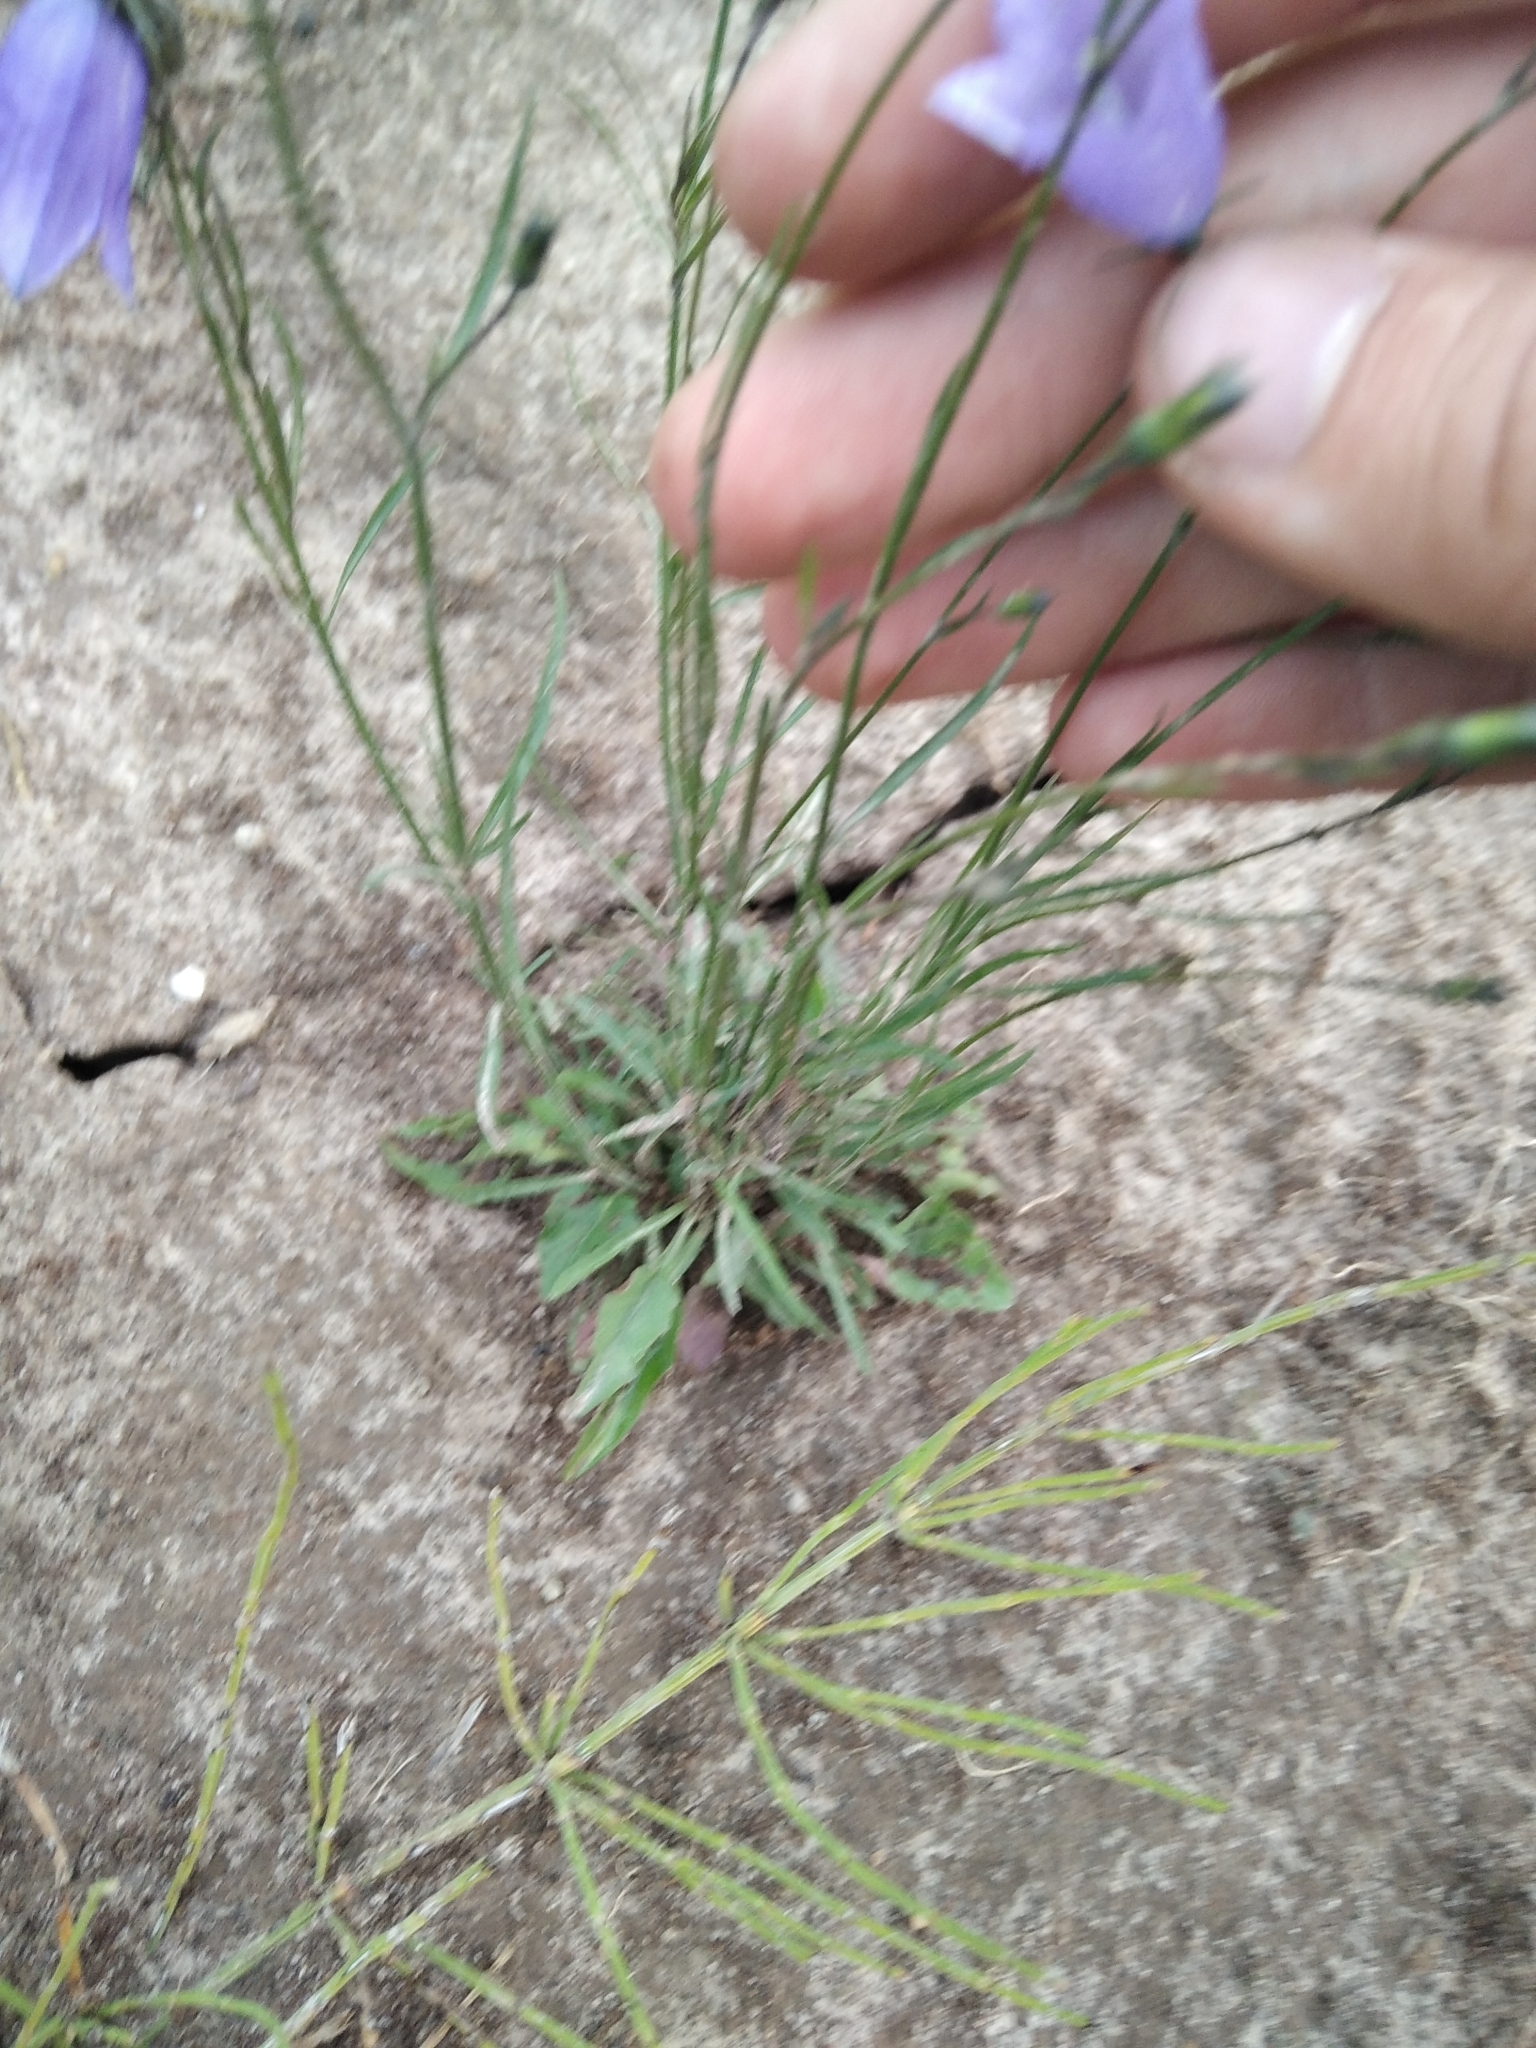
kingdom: Plantae
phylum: Tracheophyta
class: Magnoliopsida
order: Asterales
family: Campanulaceae
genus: Campanula
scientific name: Campanula rotundifolia
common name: Harebell
